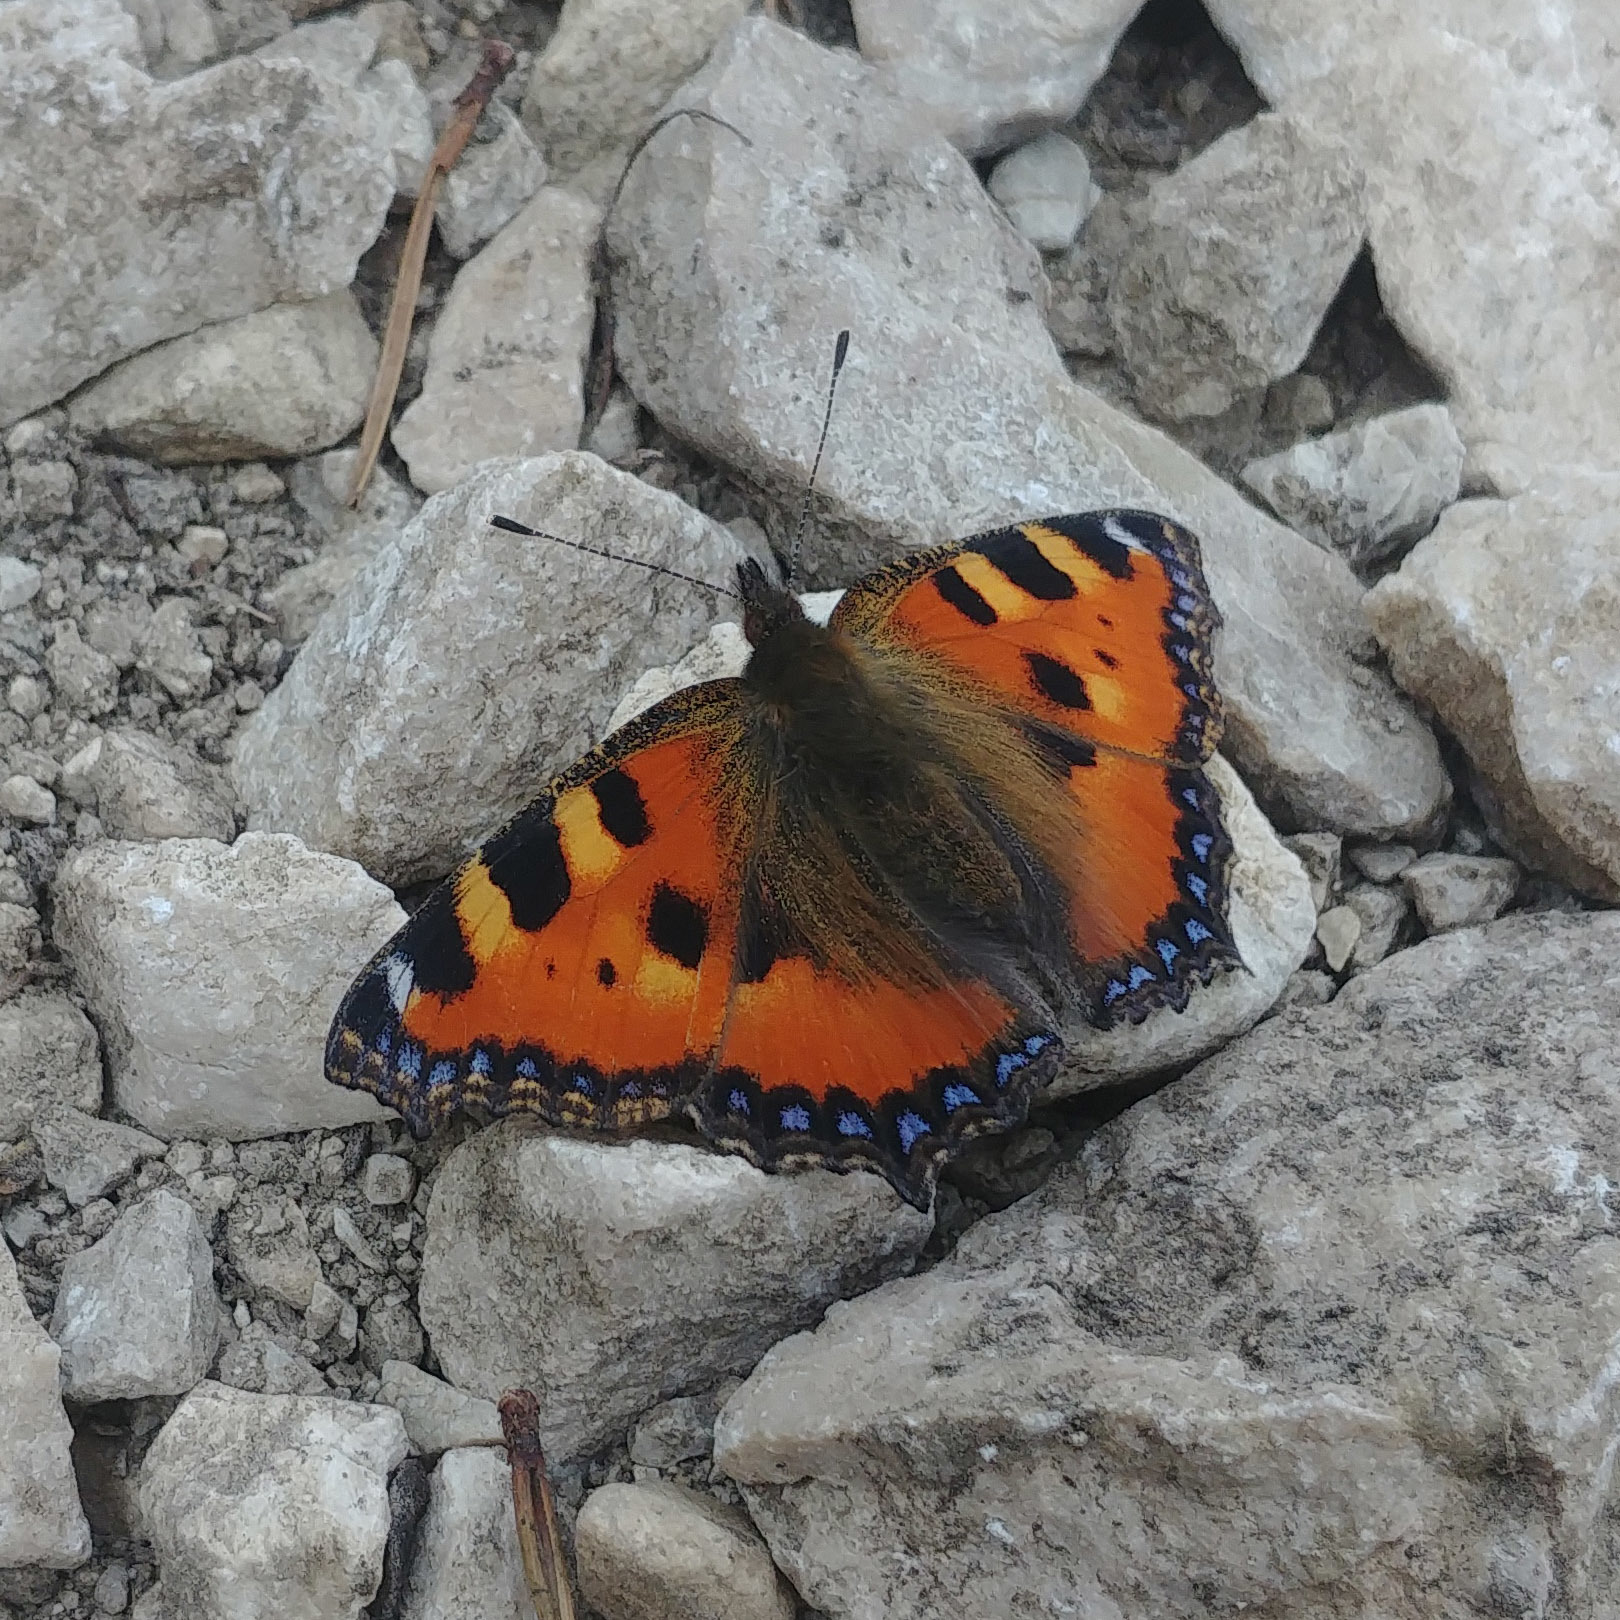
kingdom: Animalia
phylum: Arthropoda
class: Insecta
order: Lepidoptera
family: Nymphalidae
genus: Aglais
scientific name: Aglais urticae
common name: Small tortoiseshell
